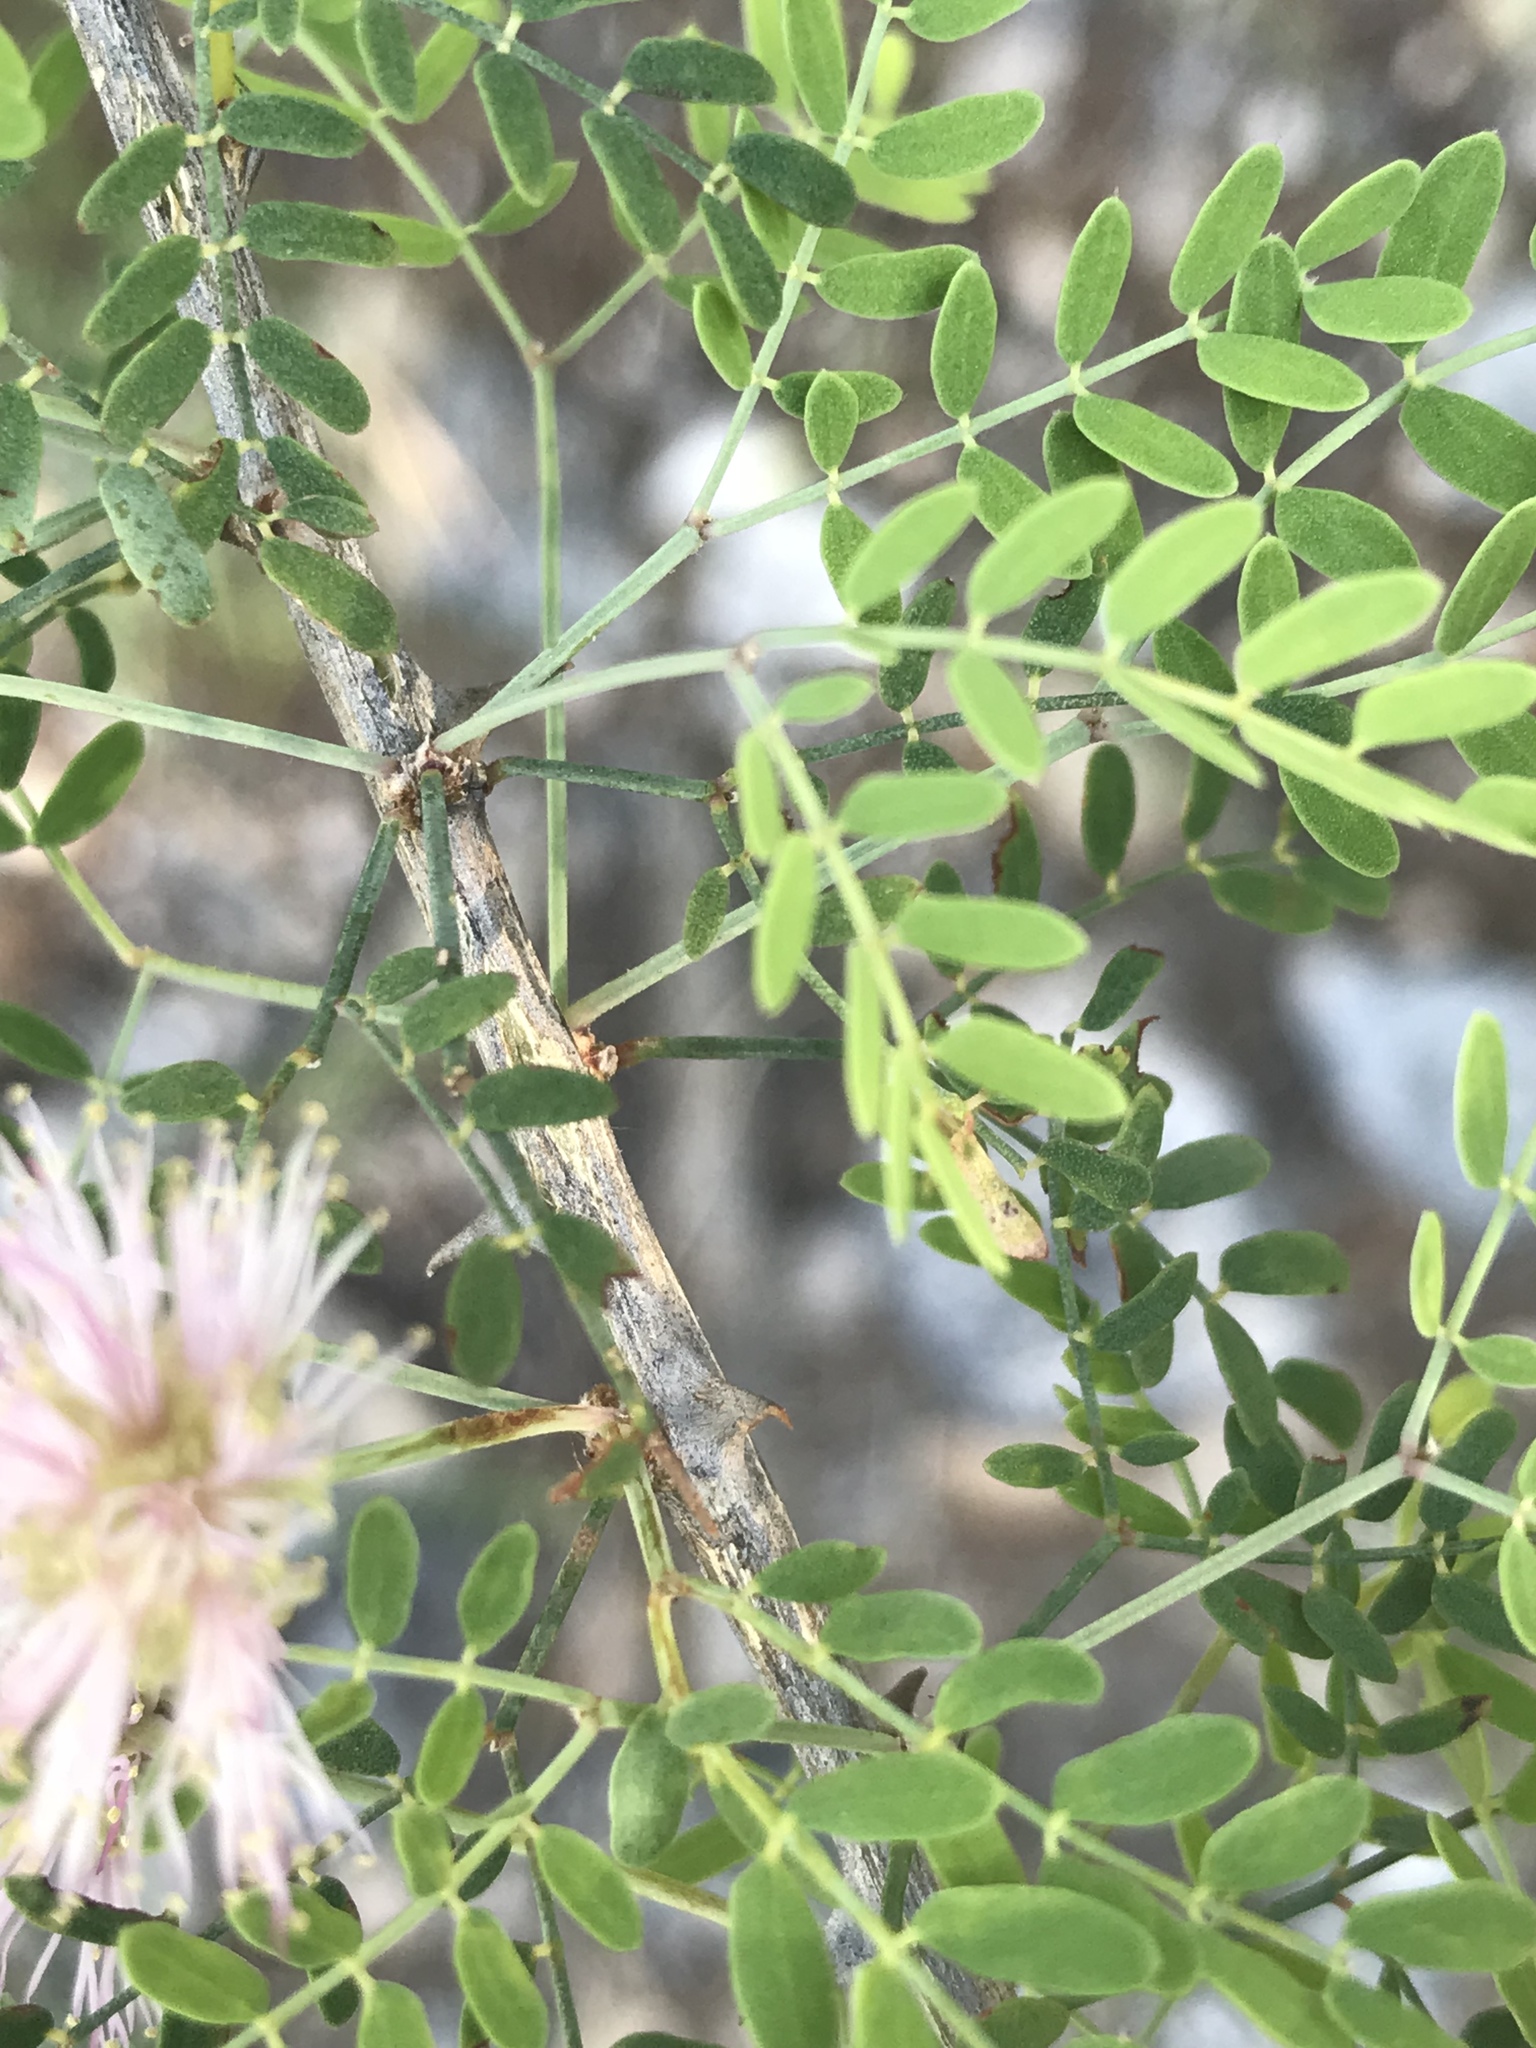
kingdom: Plantae
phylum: Tracheophyta
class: Magnoliopsida
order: Fabales
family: Fabaceae
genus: Mimosa
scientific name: Mimosa borealis
